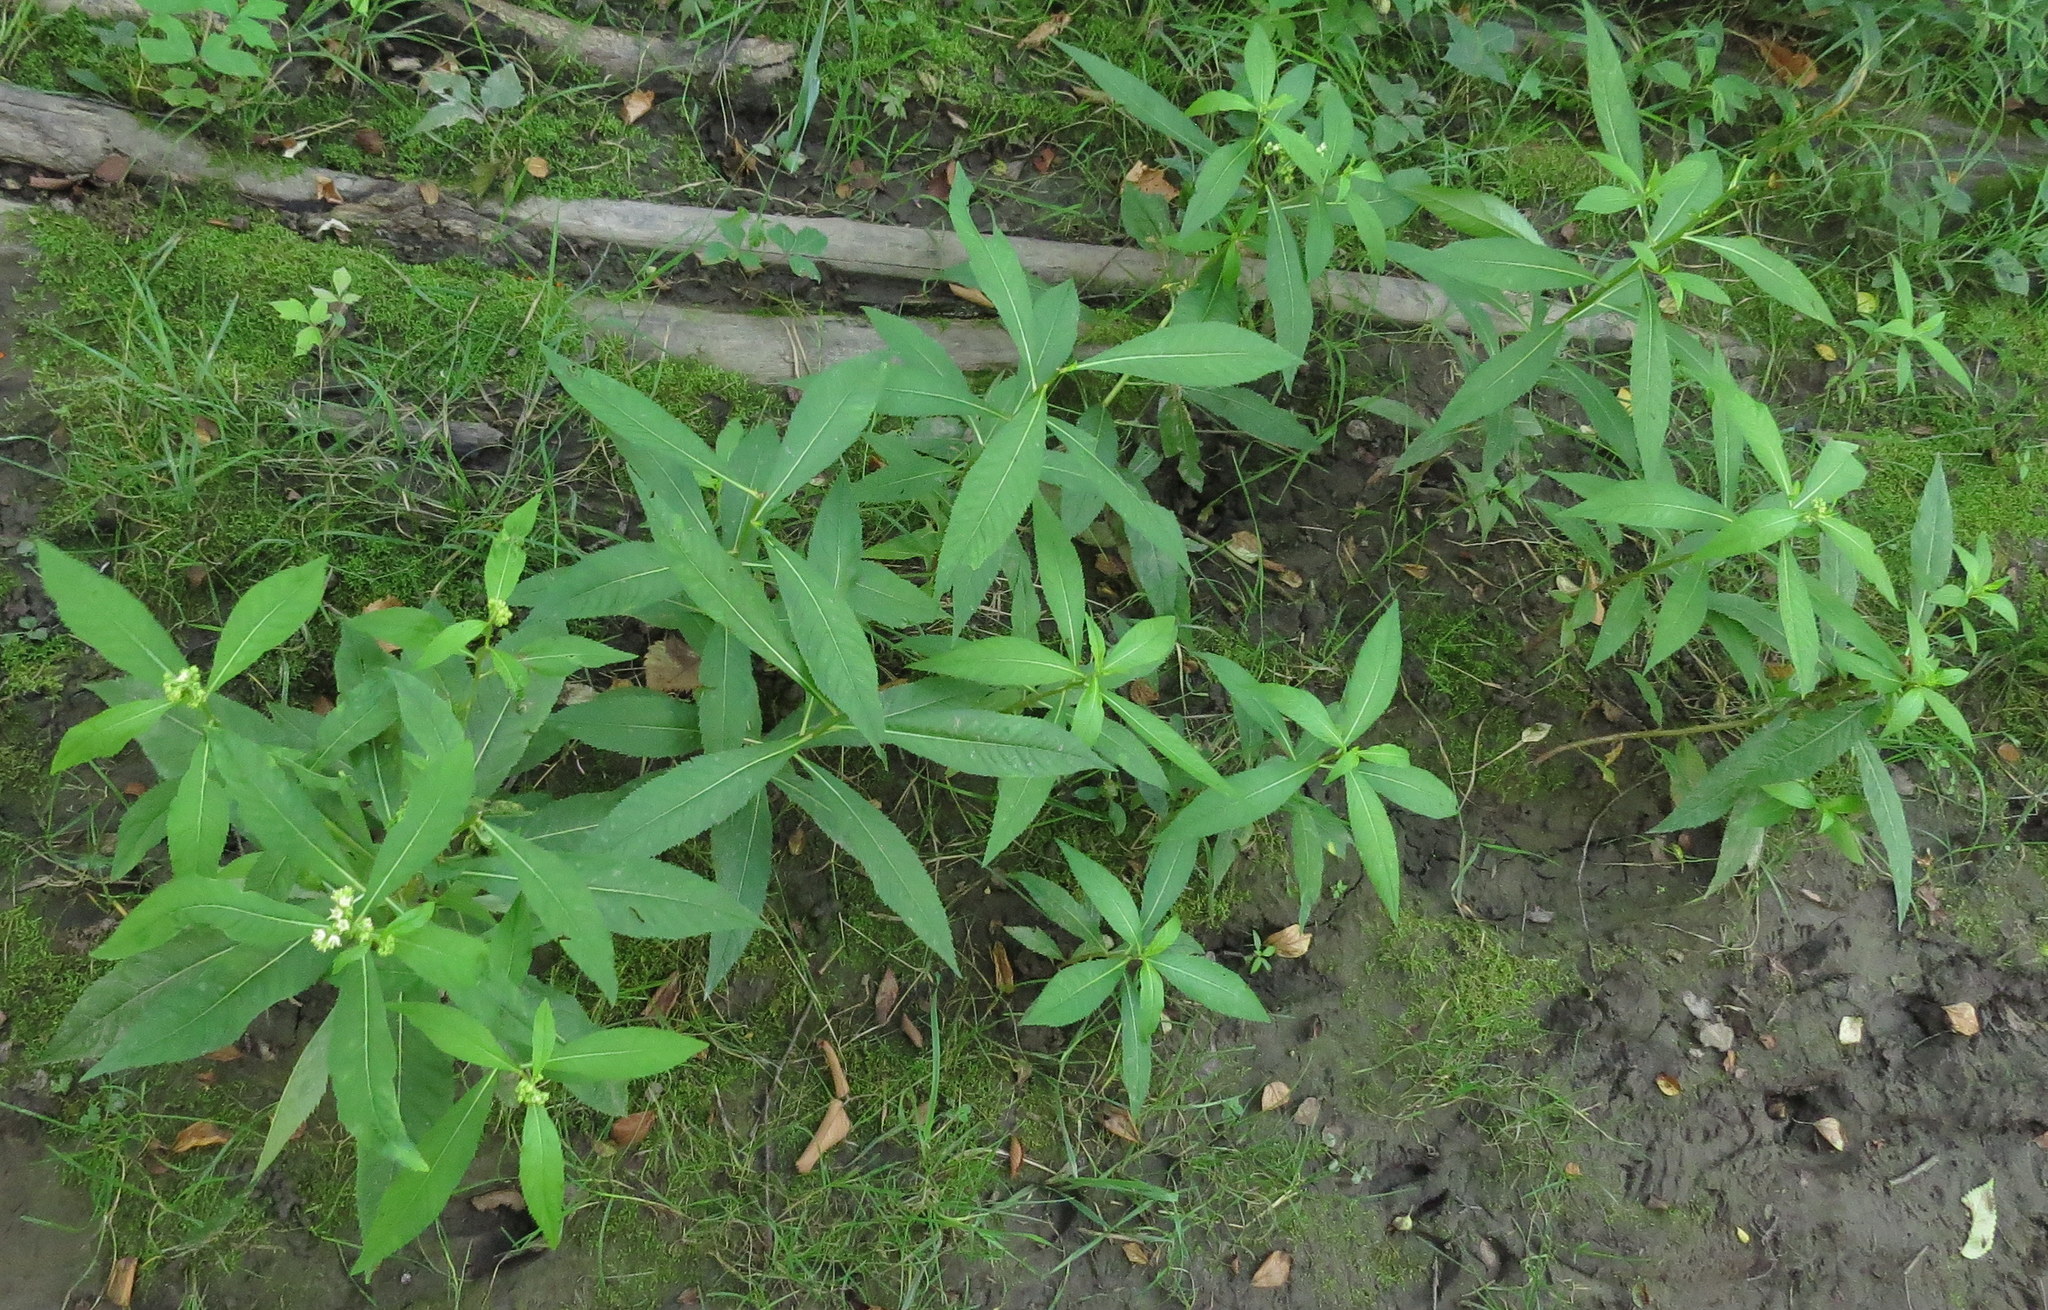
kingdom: Plantae
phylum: Tracheophyta
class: Magnoliopsida
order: Saxifragales
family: Penthoraceae
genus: Penthorum
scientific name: Penthorum sedoides
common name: Ditch stonecrop
